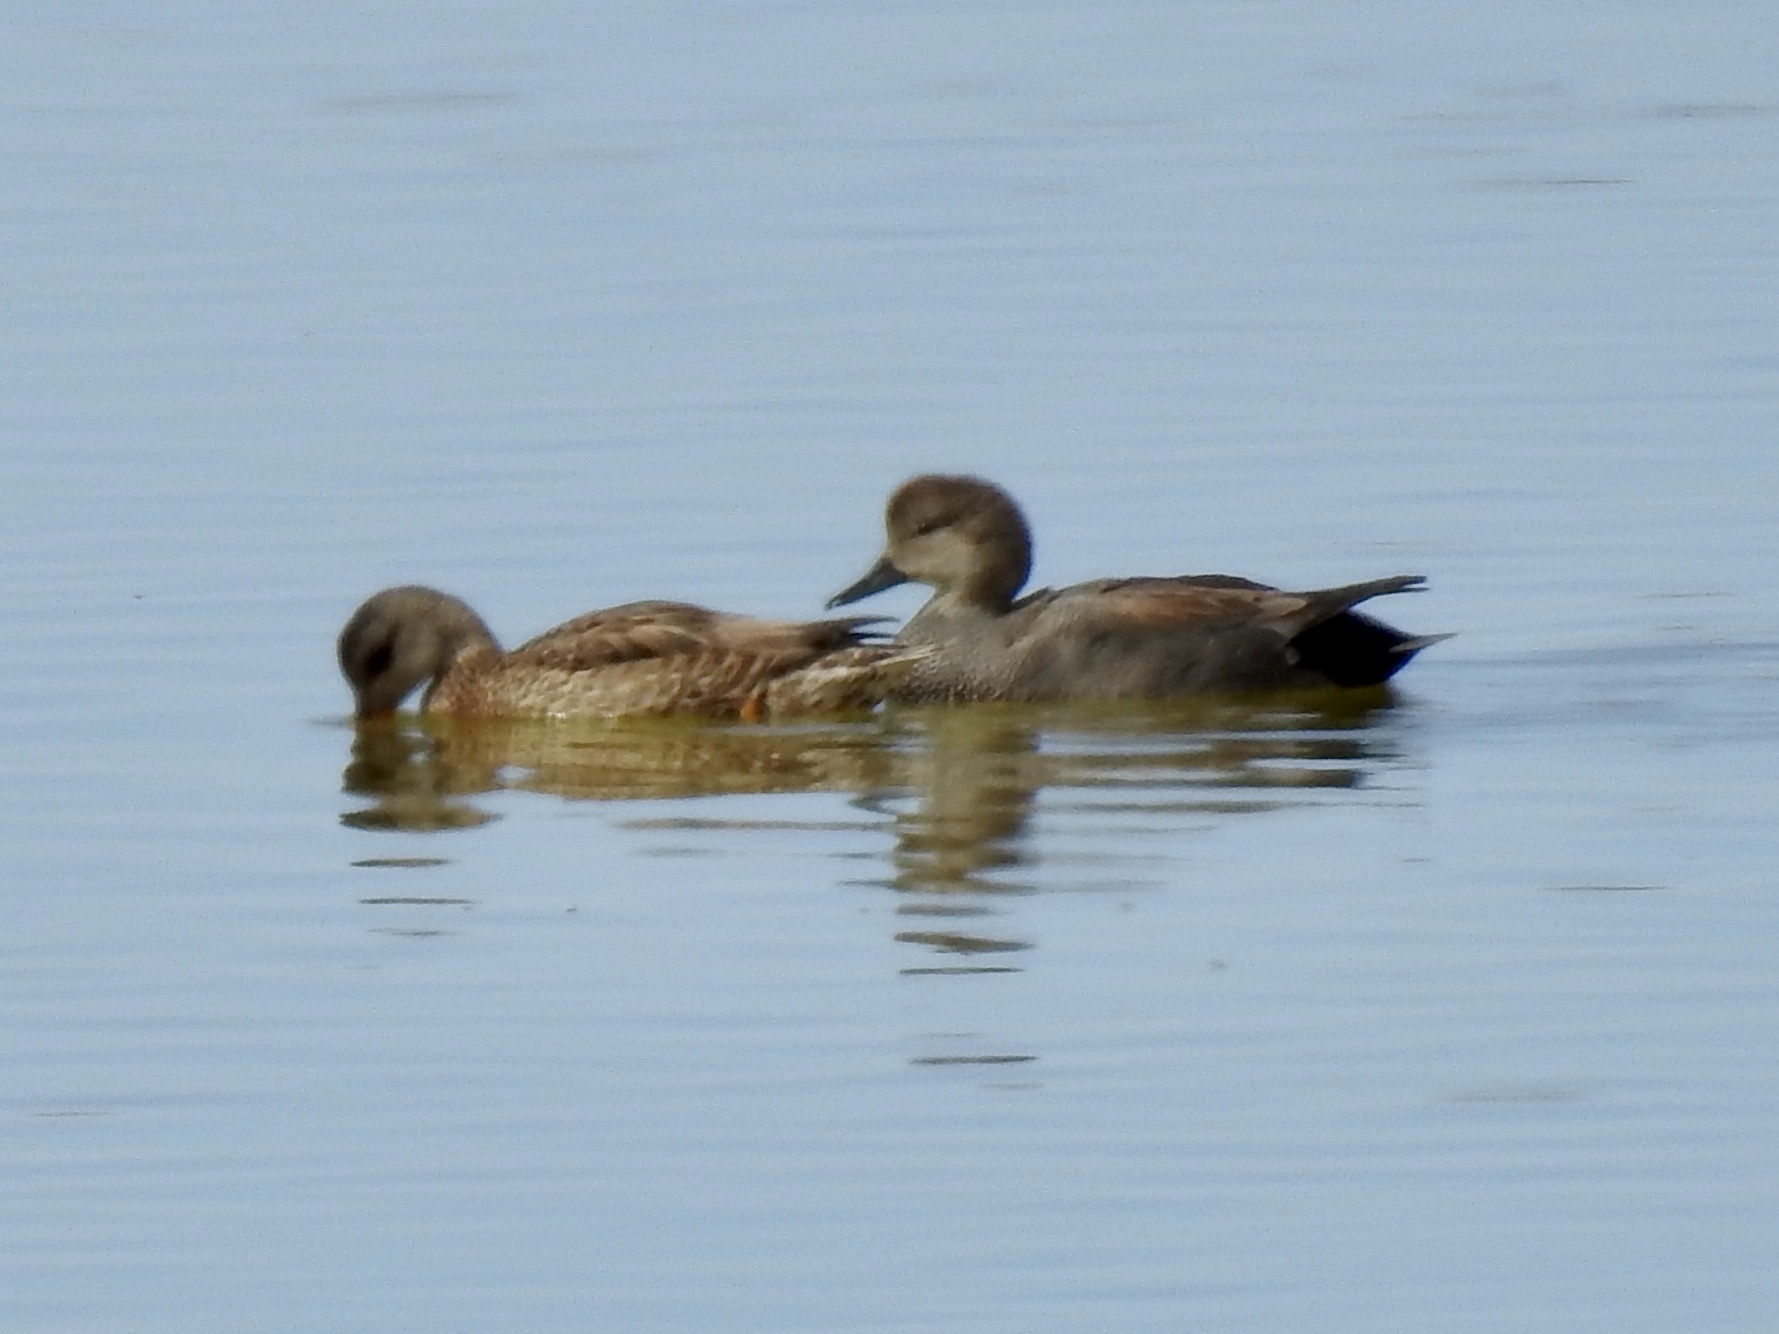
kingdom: Animalia
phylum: Chordata
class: Aves
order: Anseriformes
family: Anatidae
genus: Mareca
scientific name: Mareca strepera
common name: Gadwall
